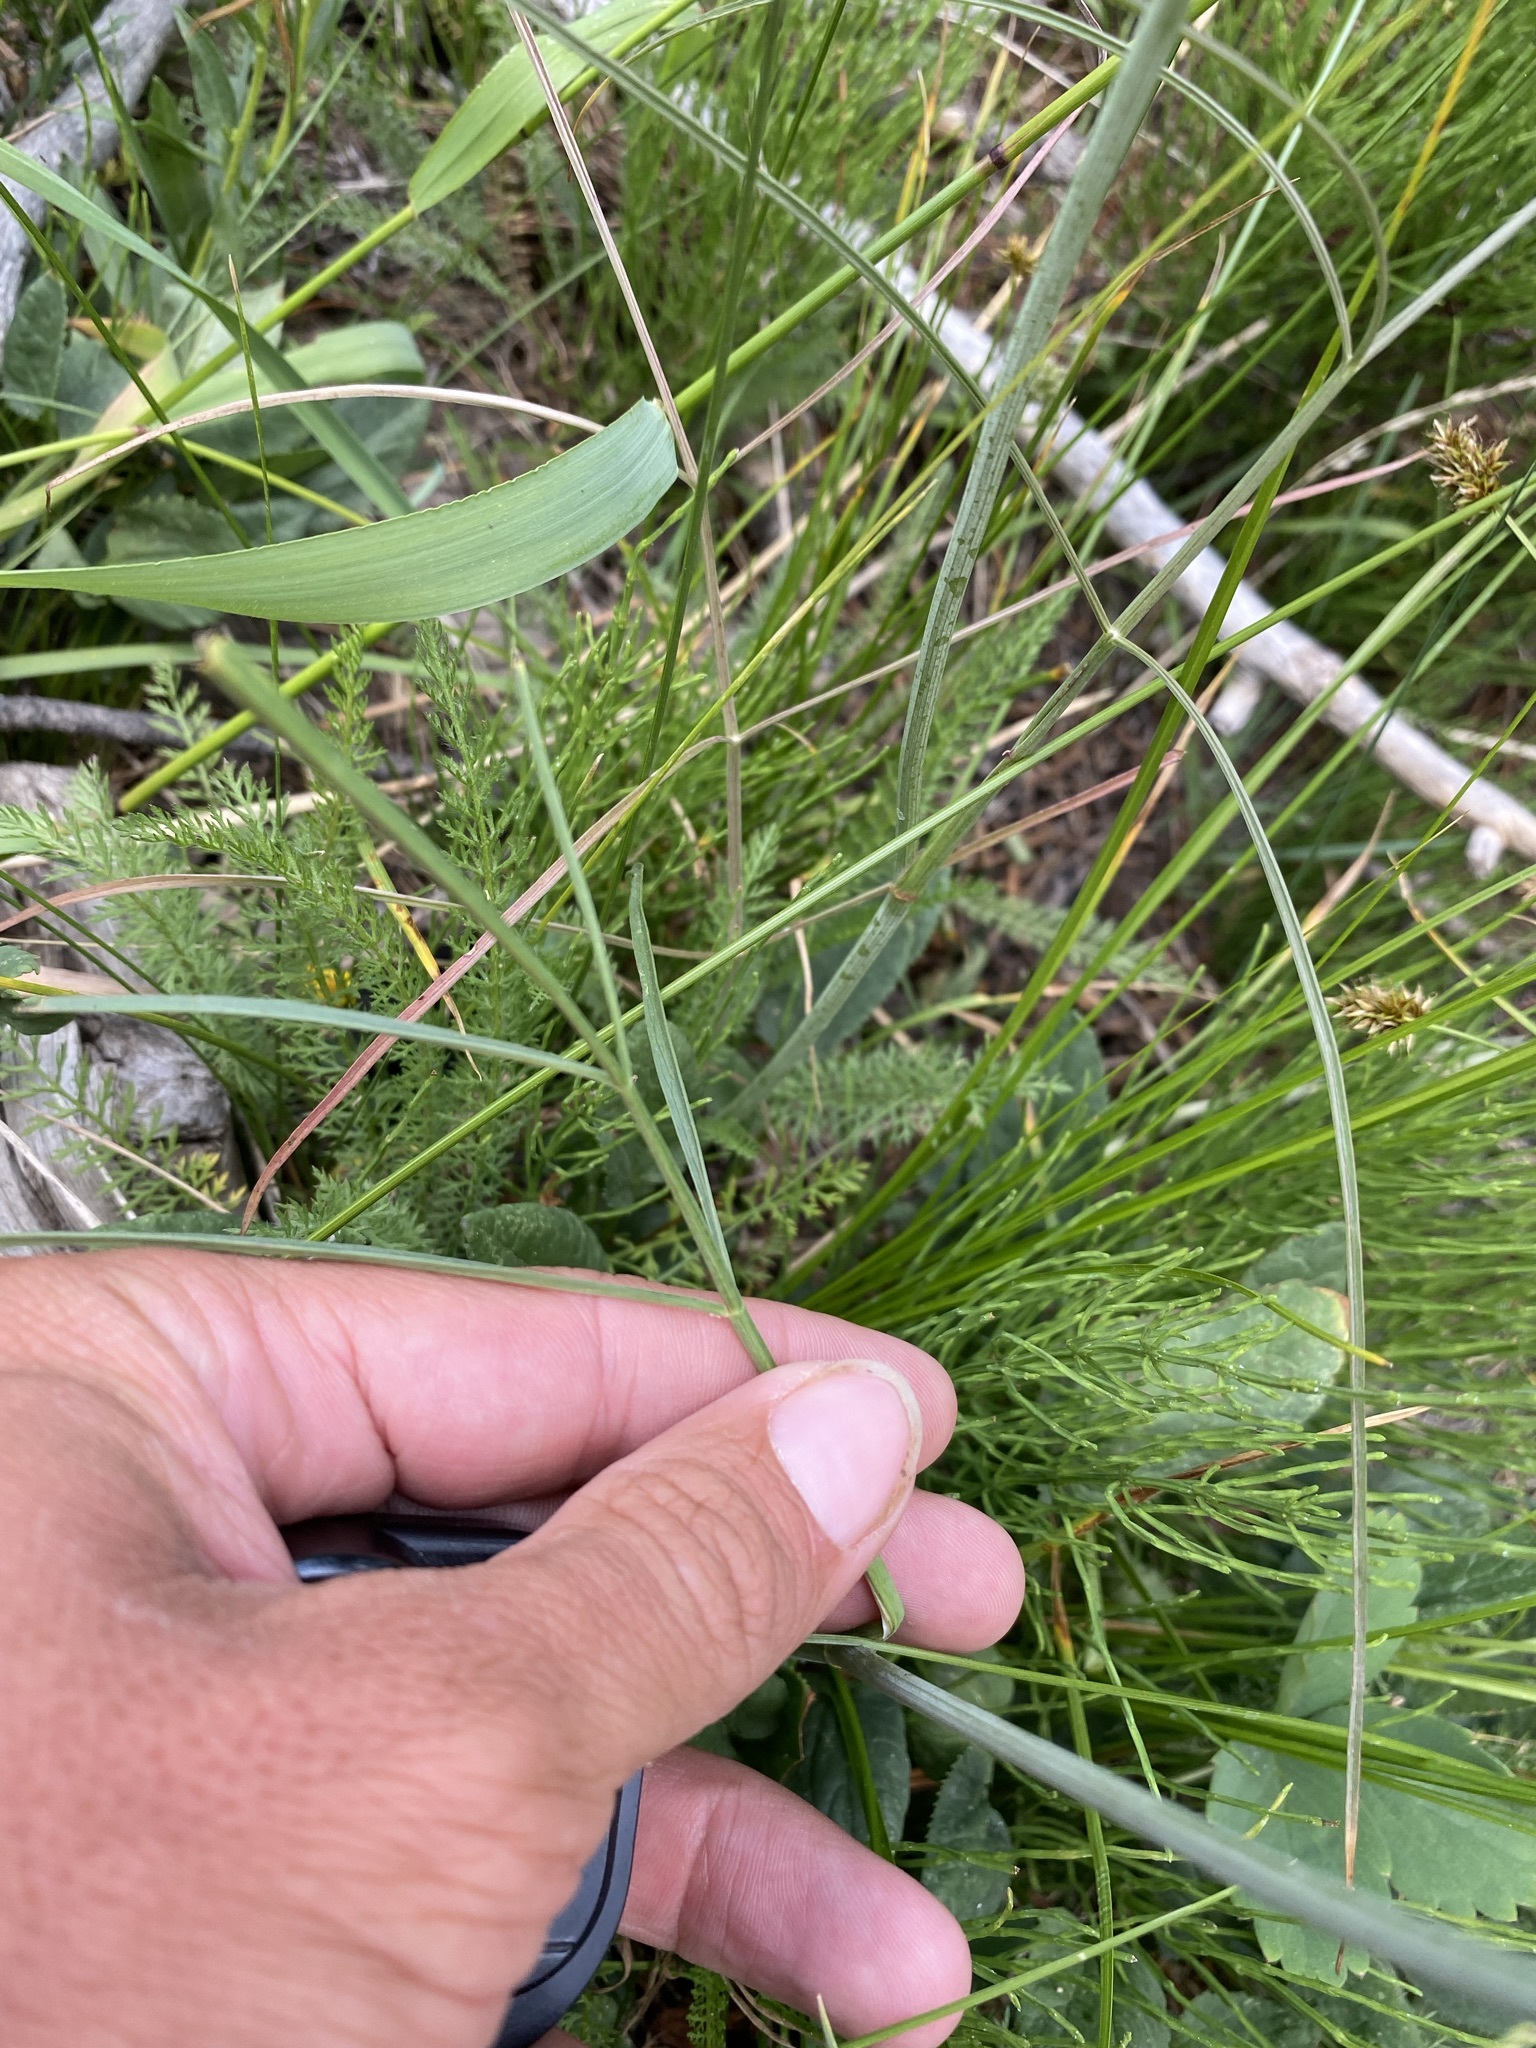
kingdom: Plantae
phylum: Tracheophyta
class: Magnoliopsida
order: Apiales
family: Apiaceae
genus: Perideridia
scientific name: Perideridia gairdneri
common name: False caraway
